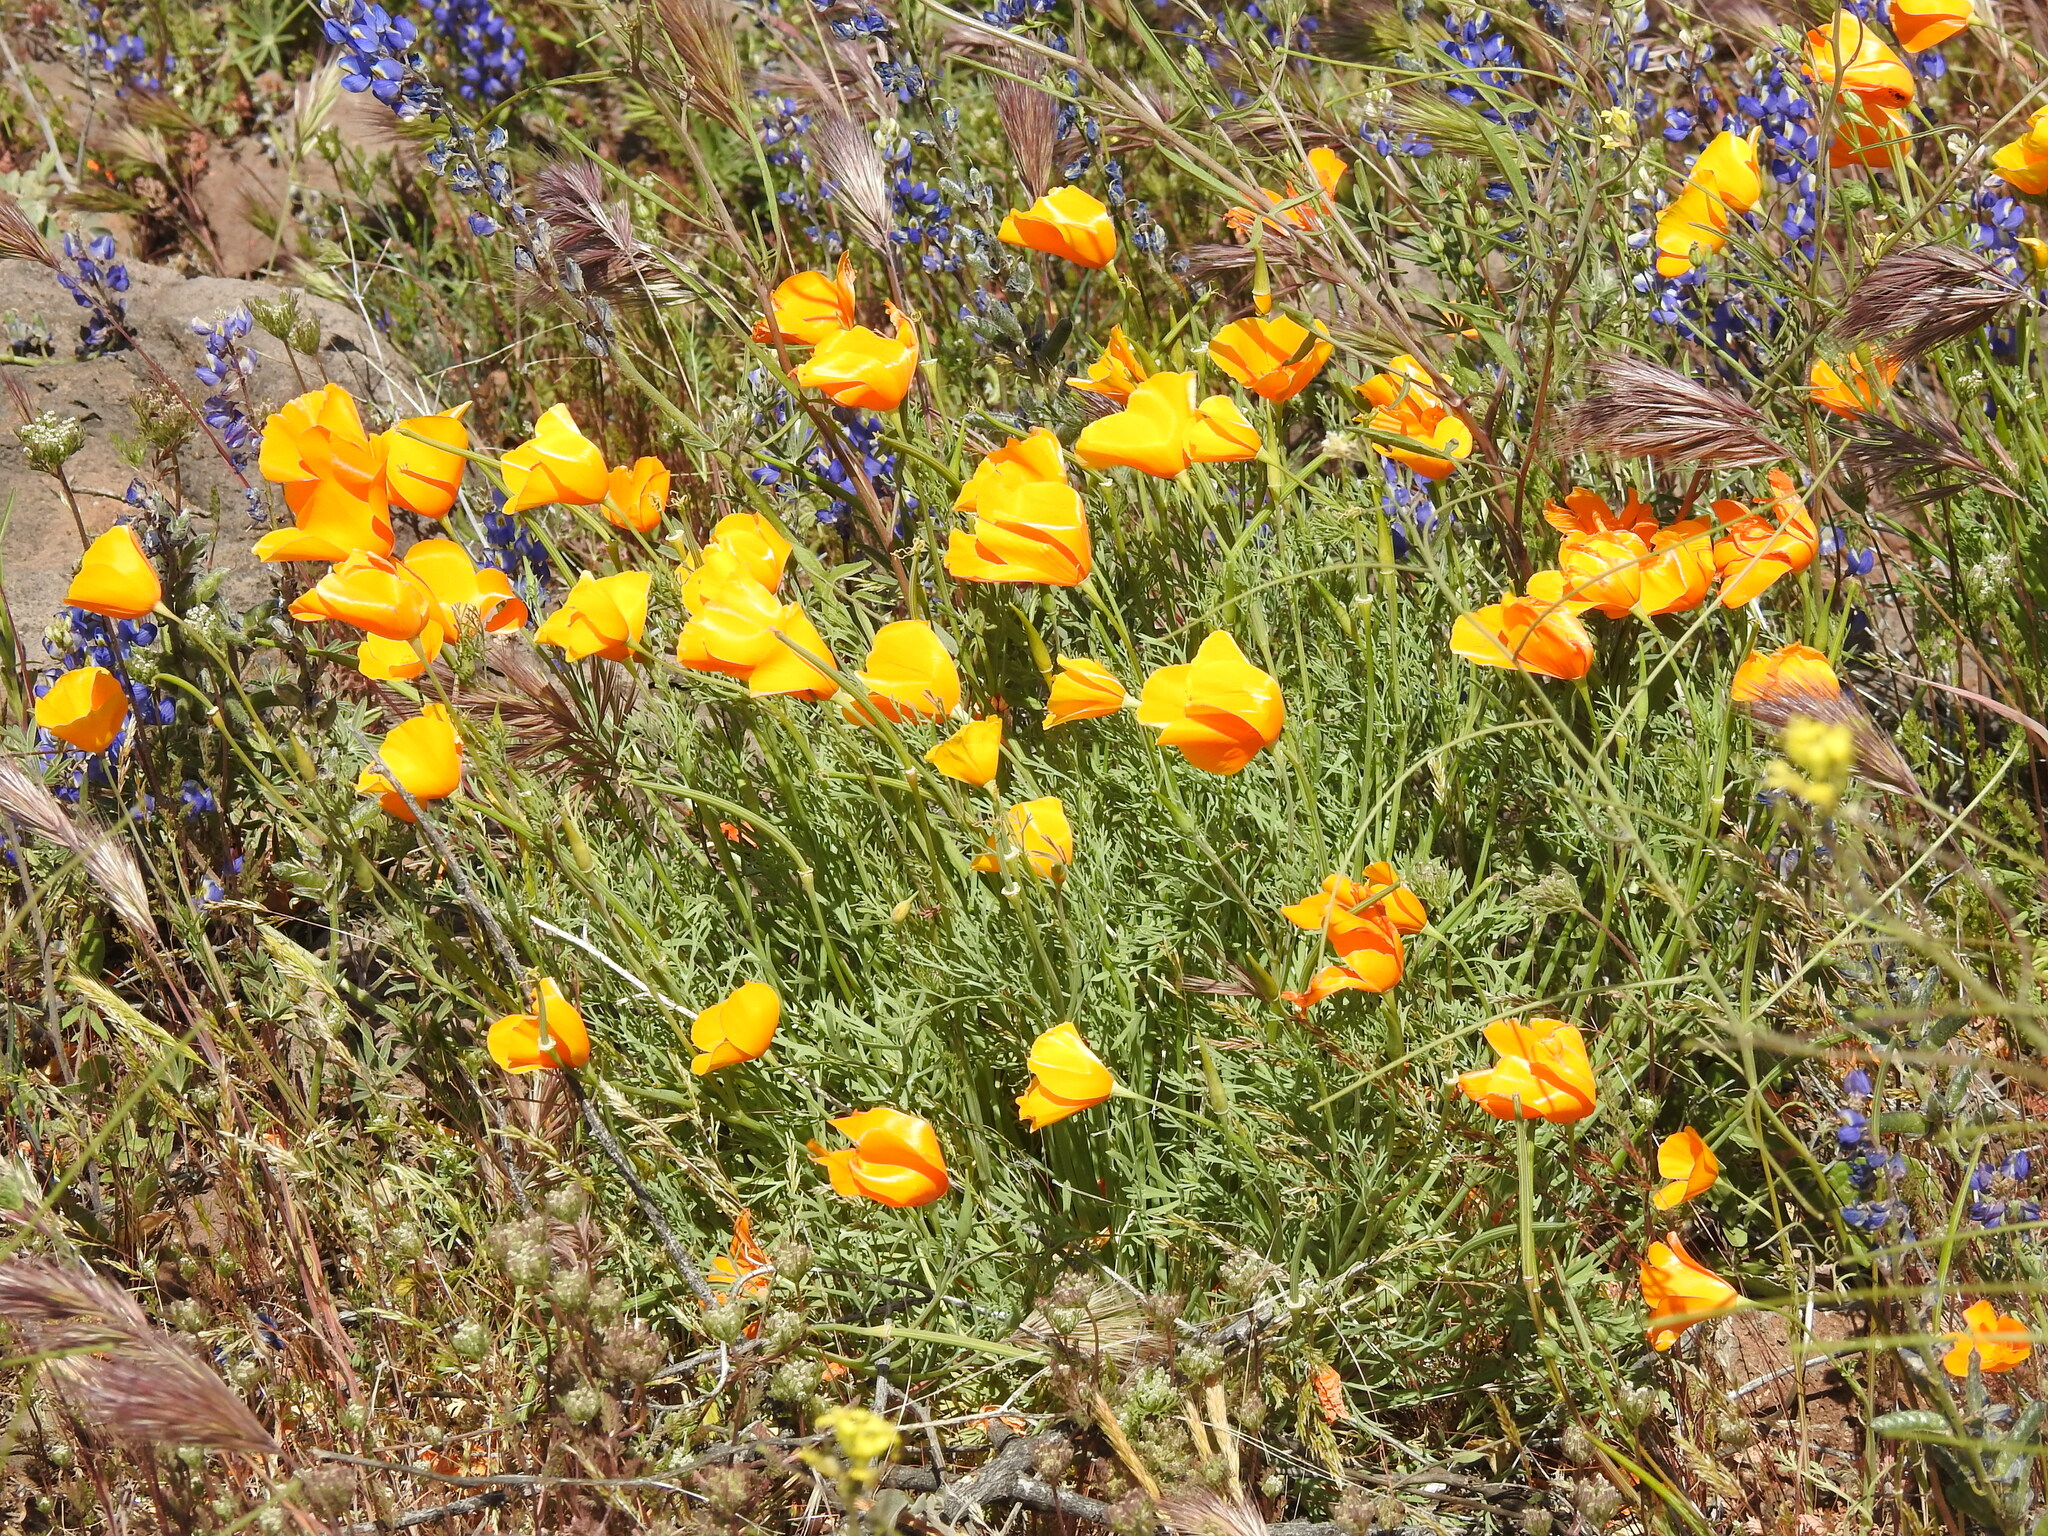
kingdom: Plantae
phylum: Tracheophyta
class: Magnoliopsida
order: Ranunculales
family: Papaveraceae
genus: Eschscholzia
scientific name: Eschscholzia californica
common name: California poppy
